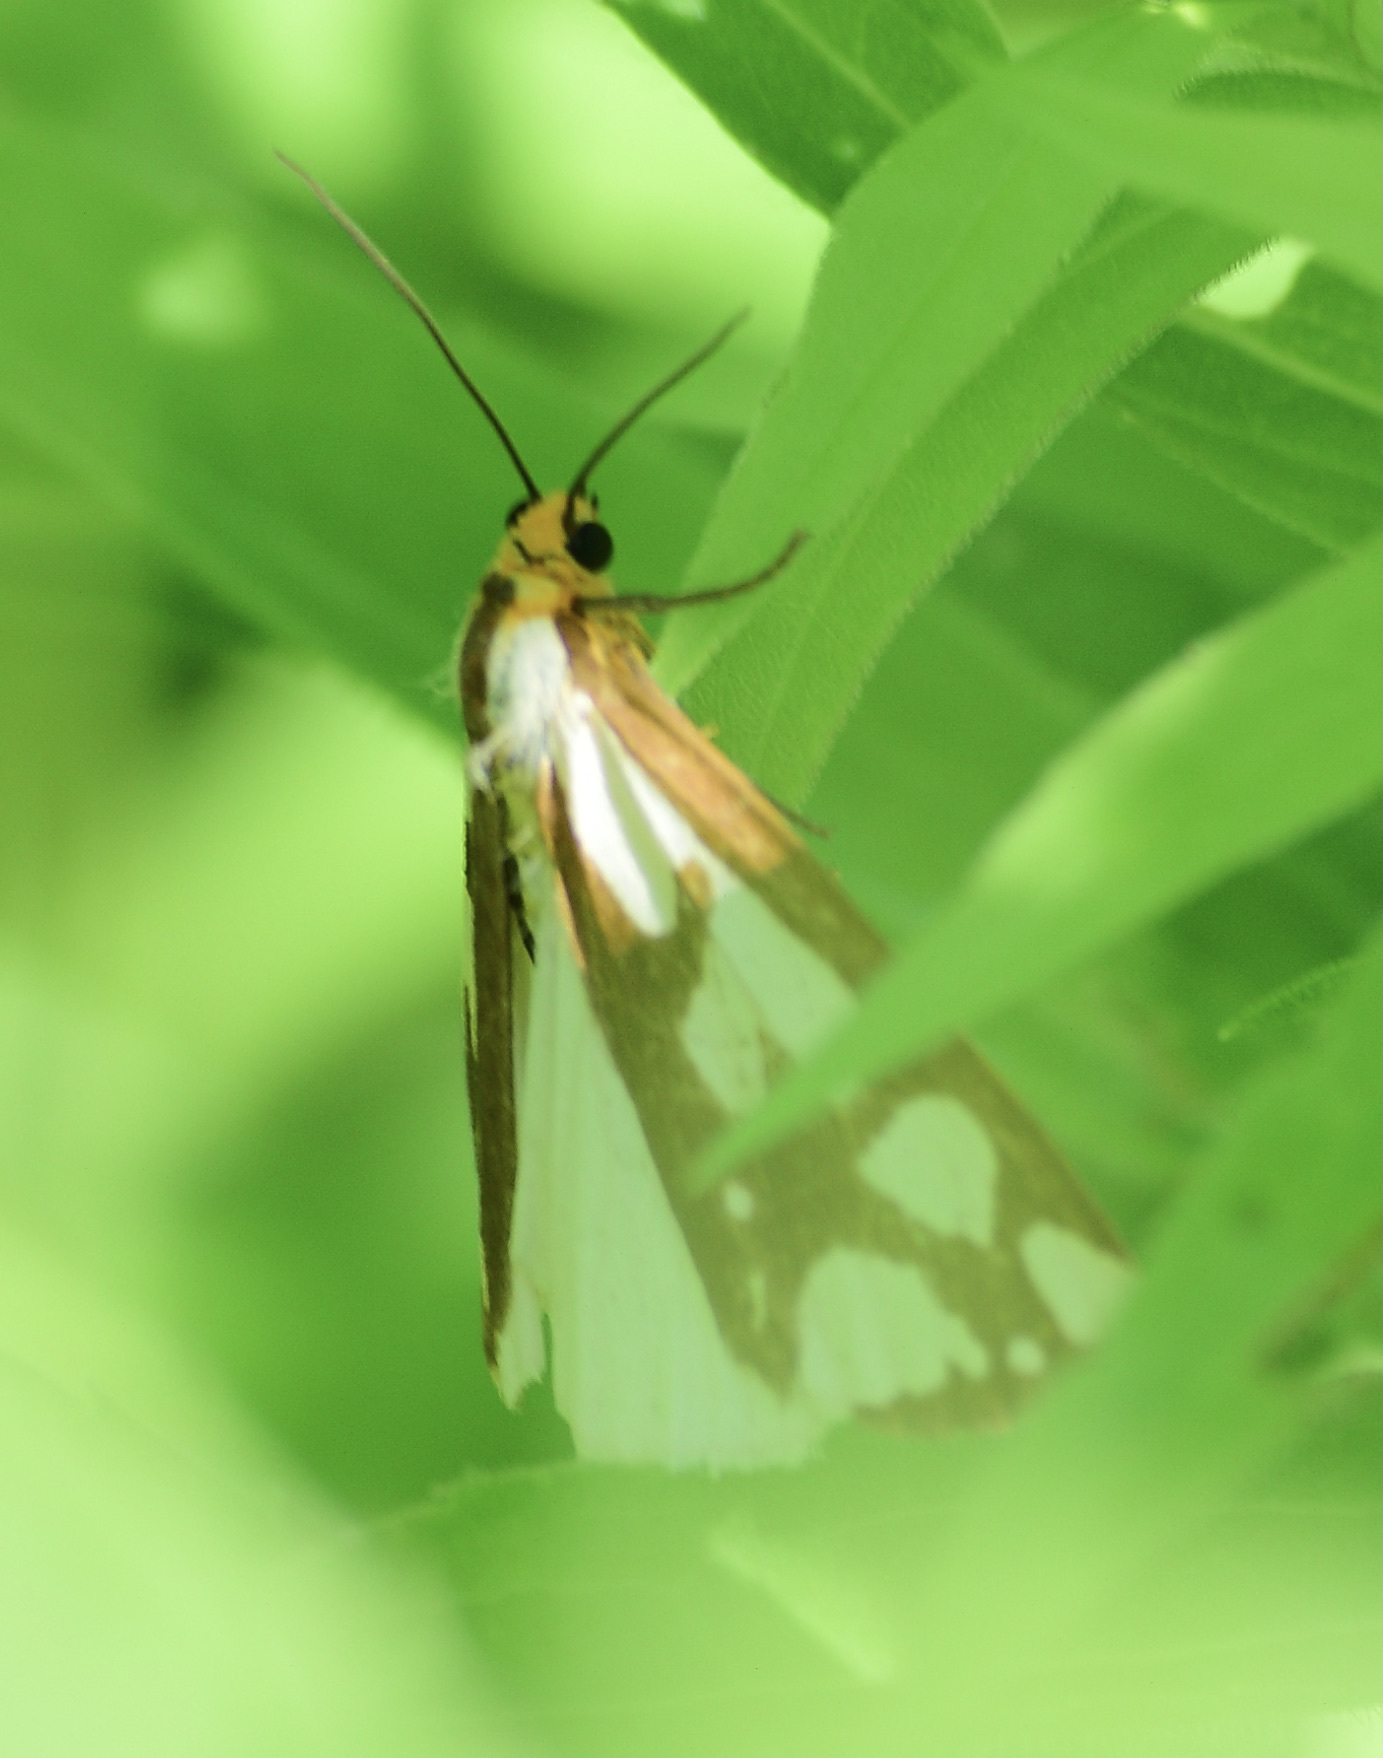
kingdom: Animalia
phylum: Arthropoda
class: Insecta
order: Lepidoptera
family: Erebidae
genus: Haploa
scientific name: Haploa confusa
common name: Confused haploa moth
